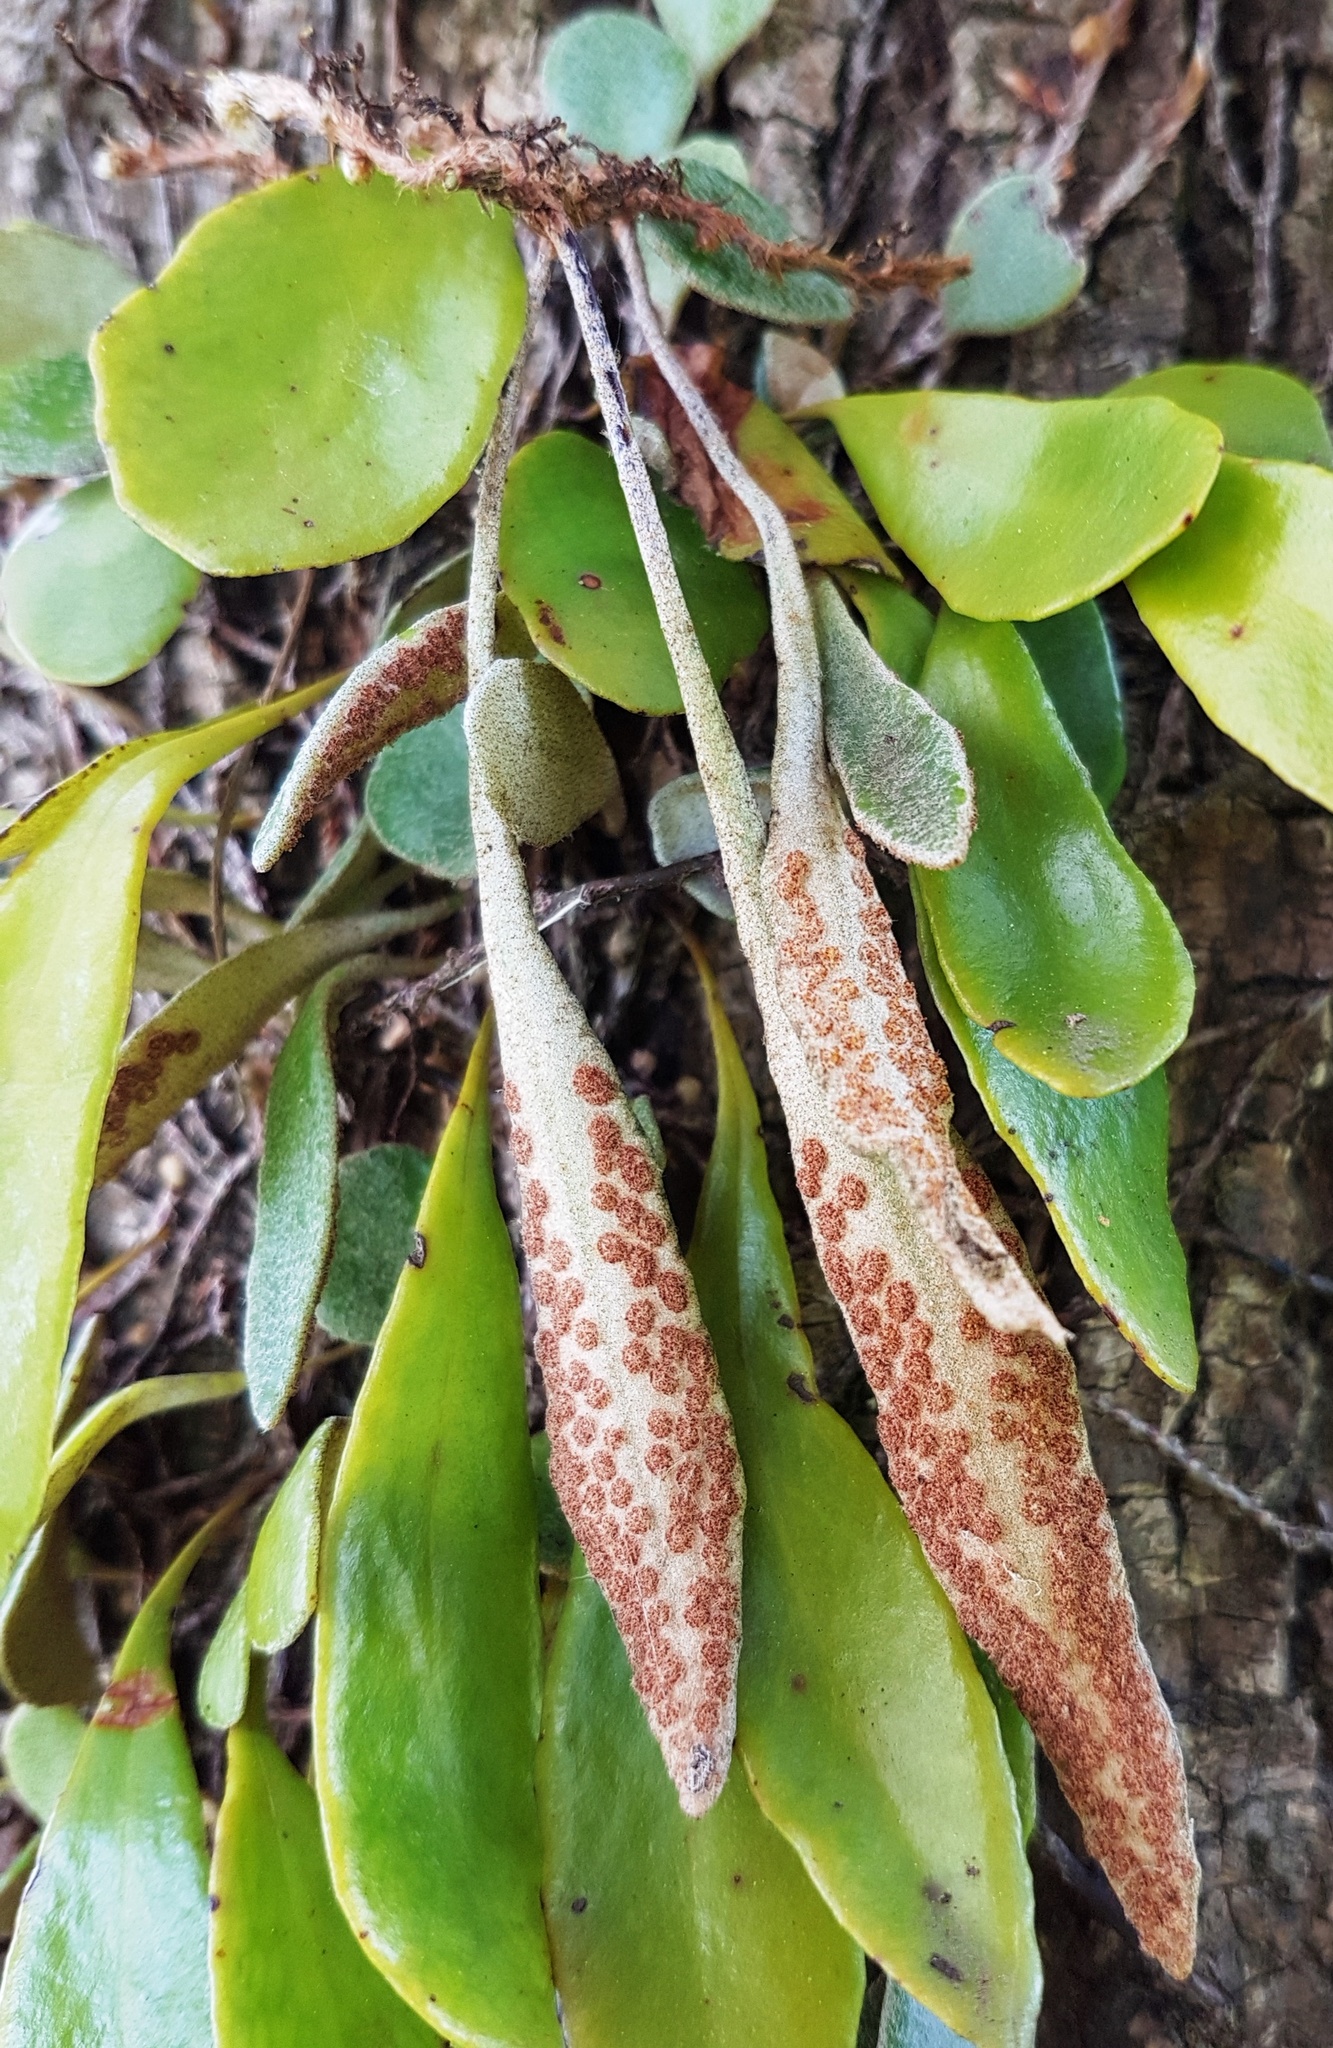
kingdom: Plantae
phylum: Tracheophyta
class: Polypodiopsida
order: Polypodiales
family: Polypodiaceae
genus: Pyrrosia
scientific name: Pyrrosia eleagnifolia
